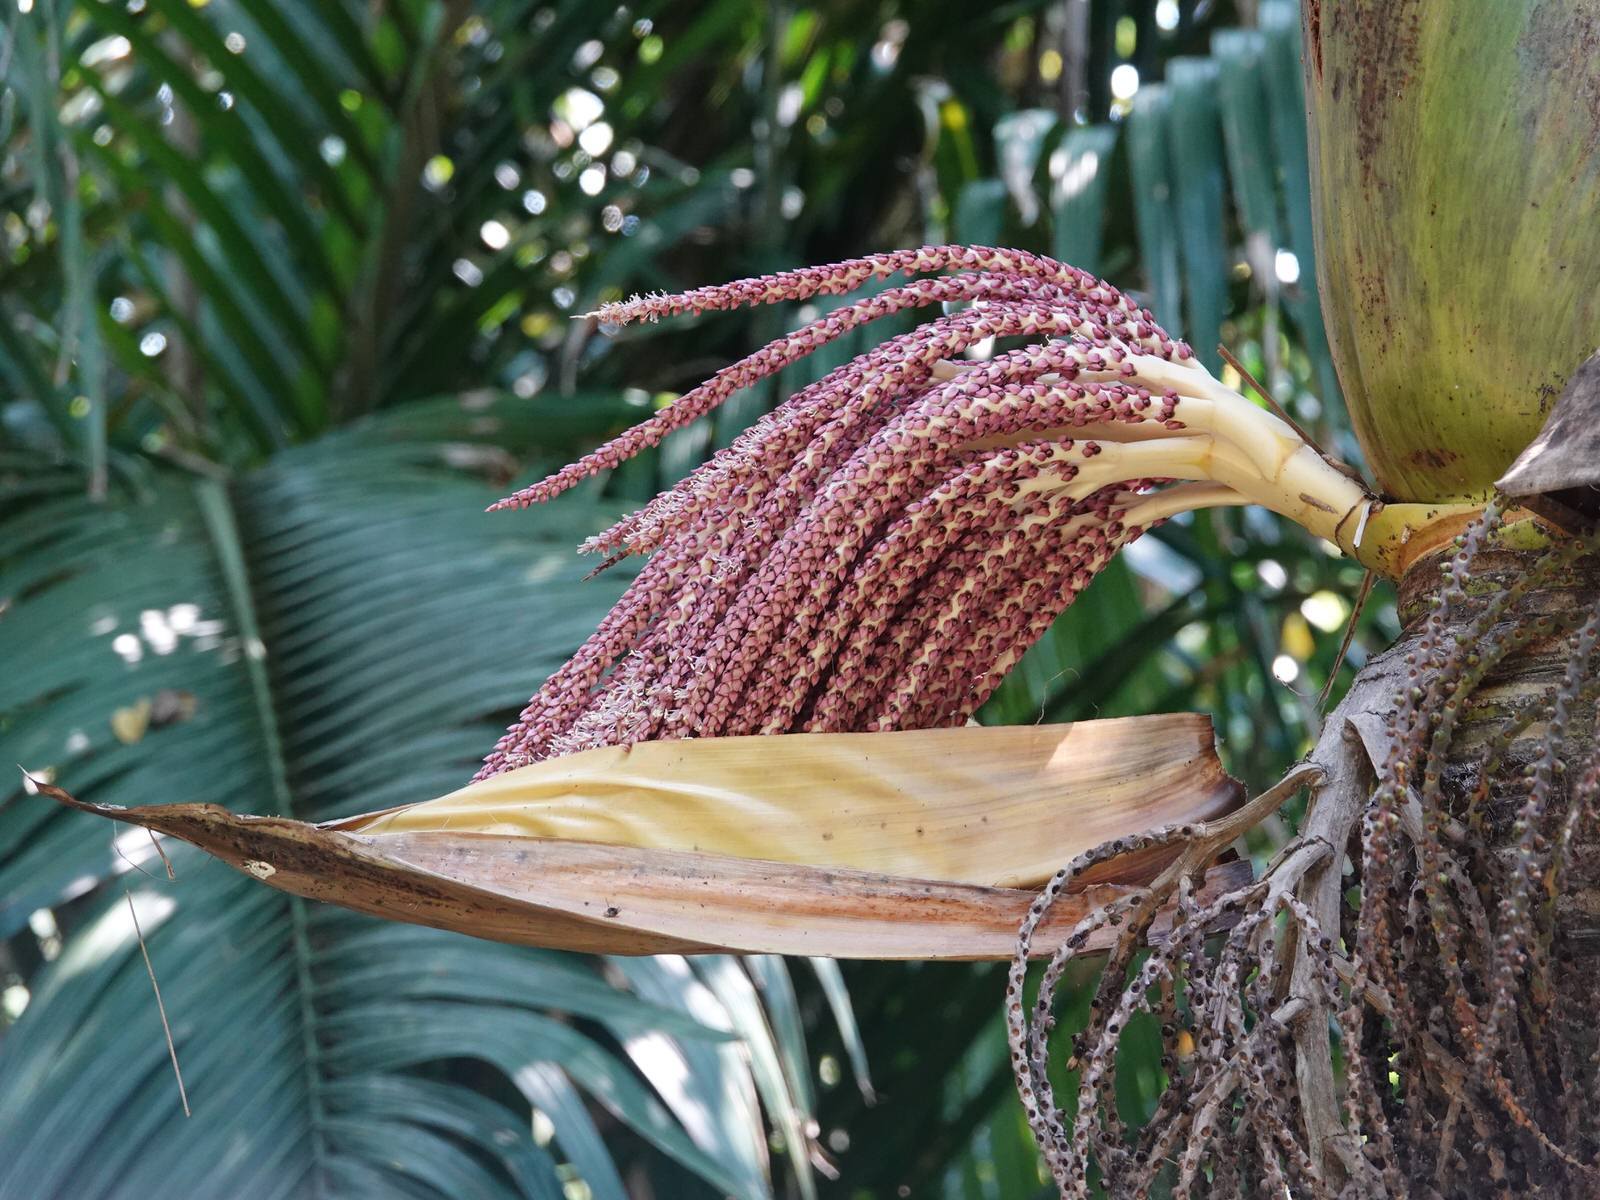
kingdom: Plantae
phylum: Tracheophyta
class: Liliopsida
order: Arecales
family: Arecaceae
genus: Rhopalostylis
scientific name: Rhopalostylis sapida
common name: Feather-duster palm
